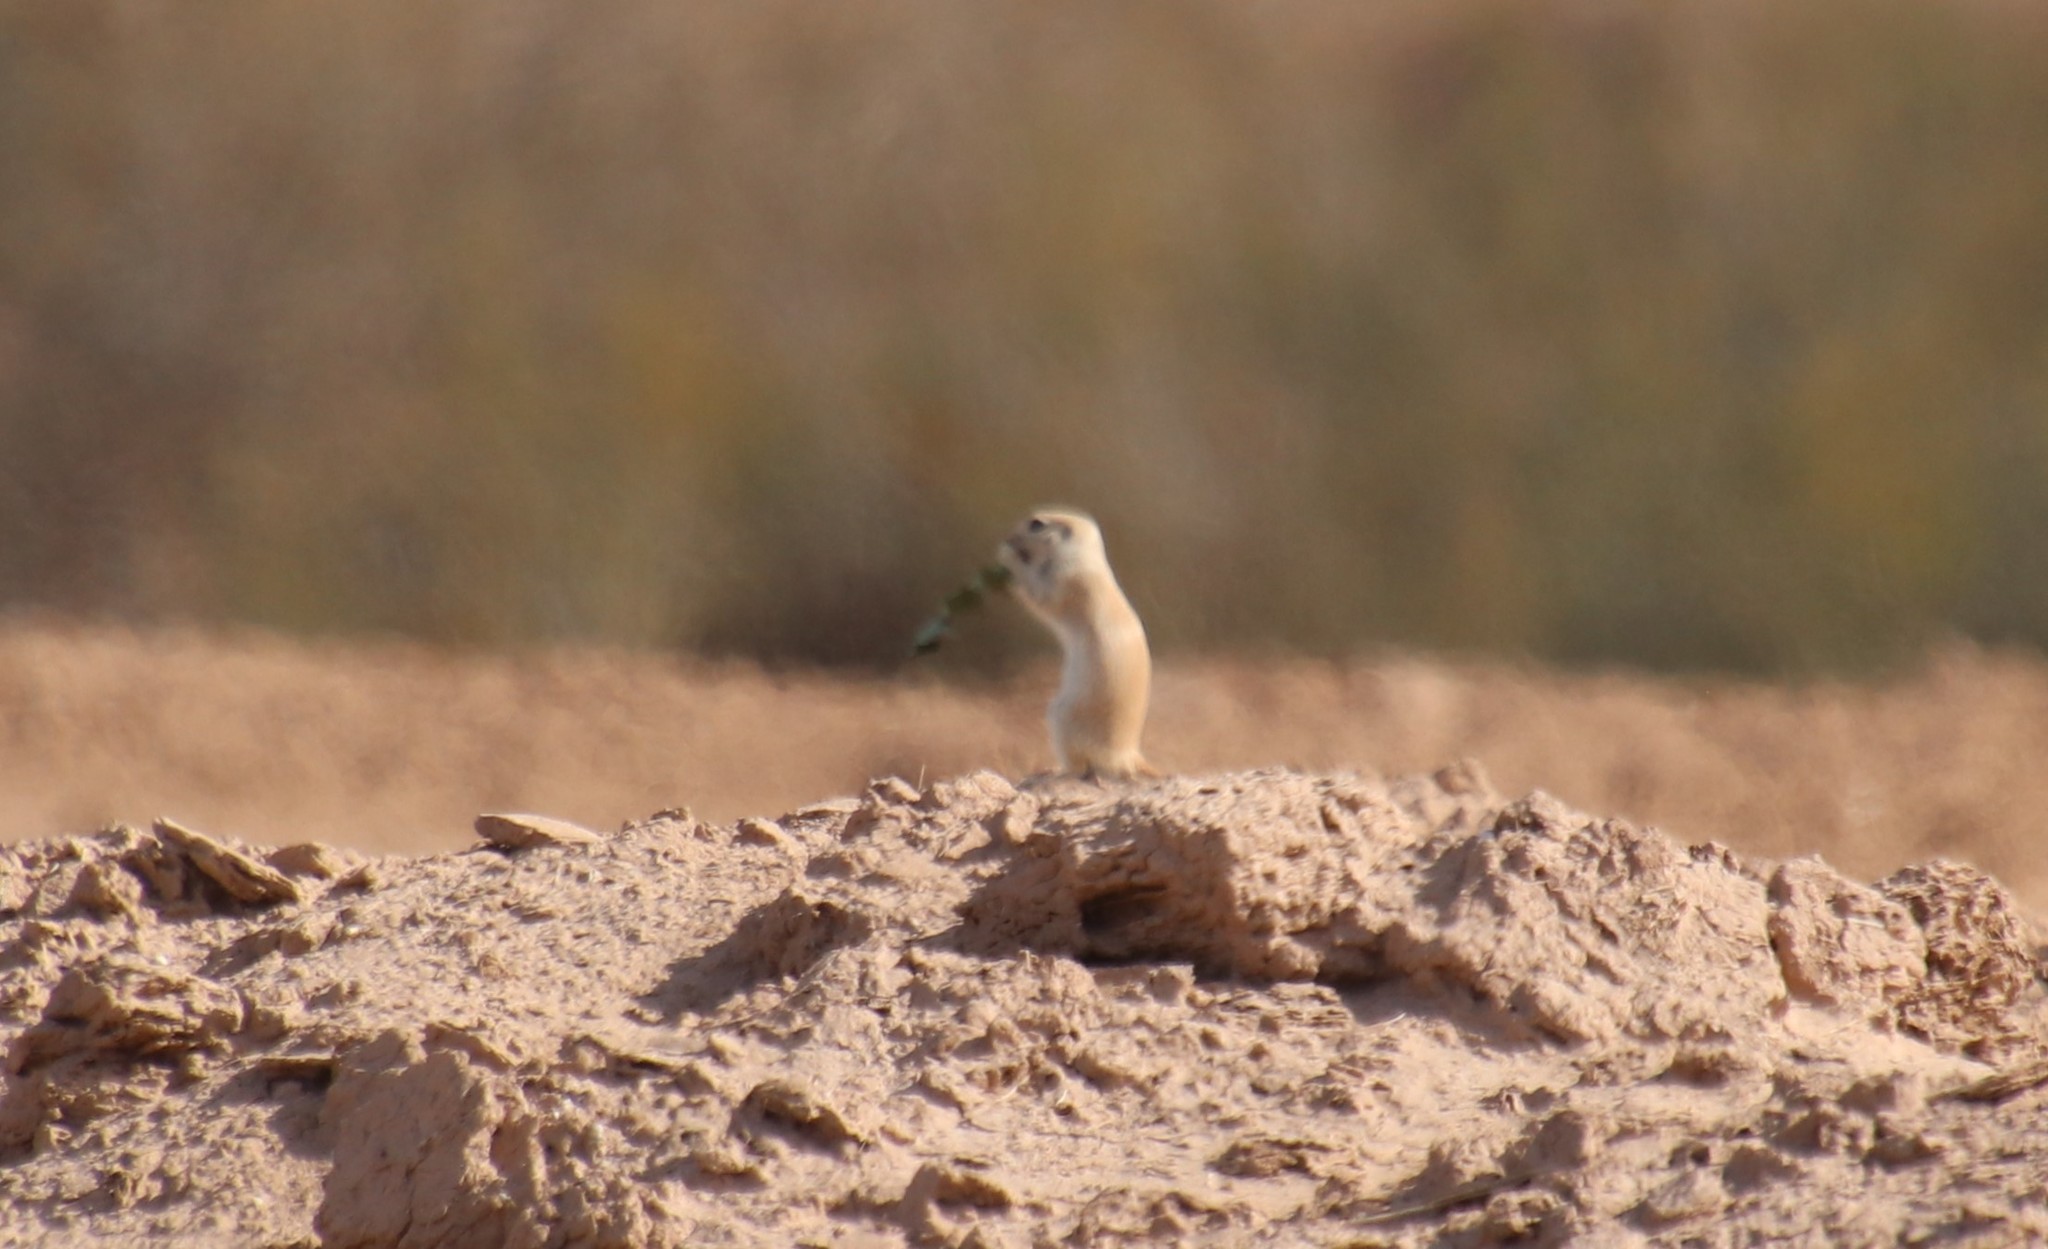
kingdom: Animalia
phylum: Chordata
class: Mammalia
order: Rodentia
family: Sciuridae
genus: Xerospermophilus
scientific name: Xerospermophilus tereticaudus
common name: Round-tailed ground squirrel
